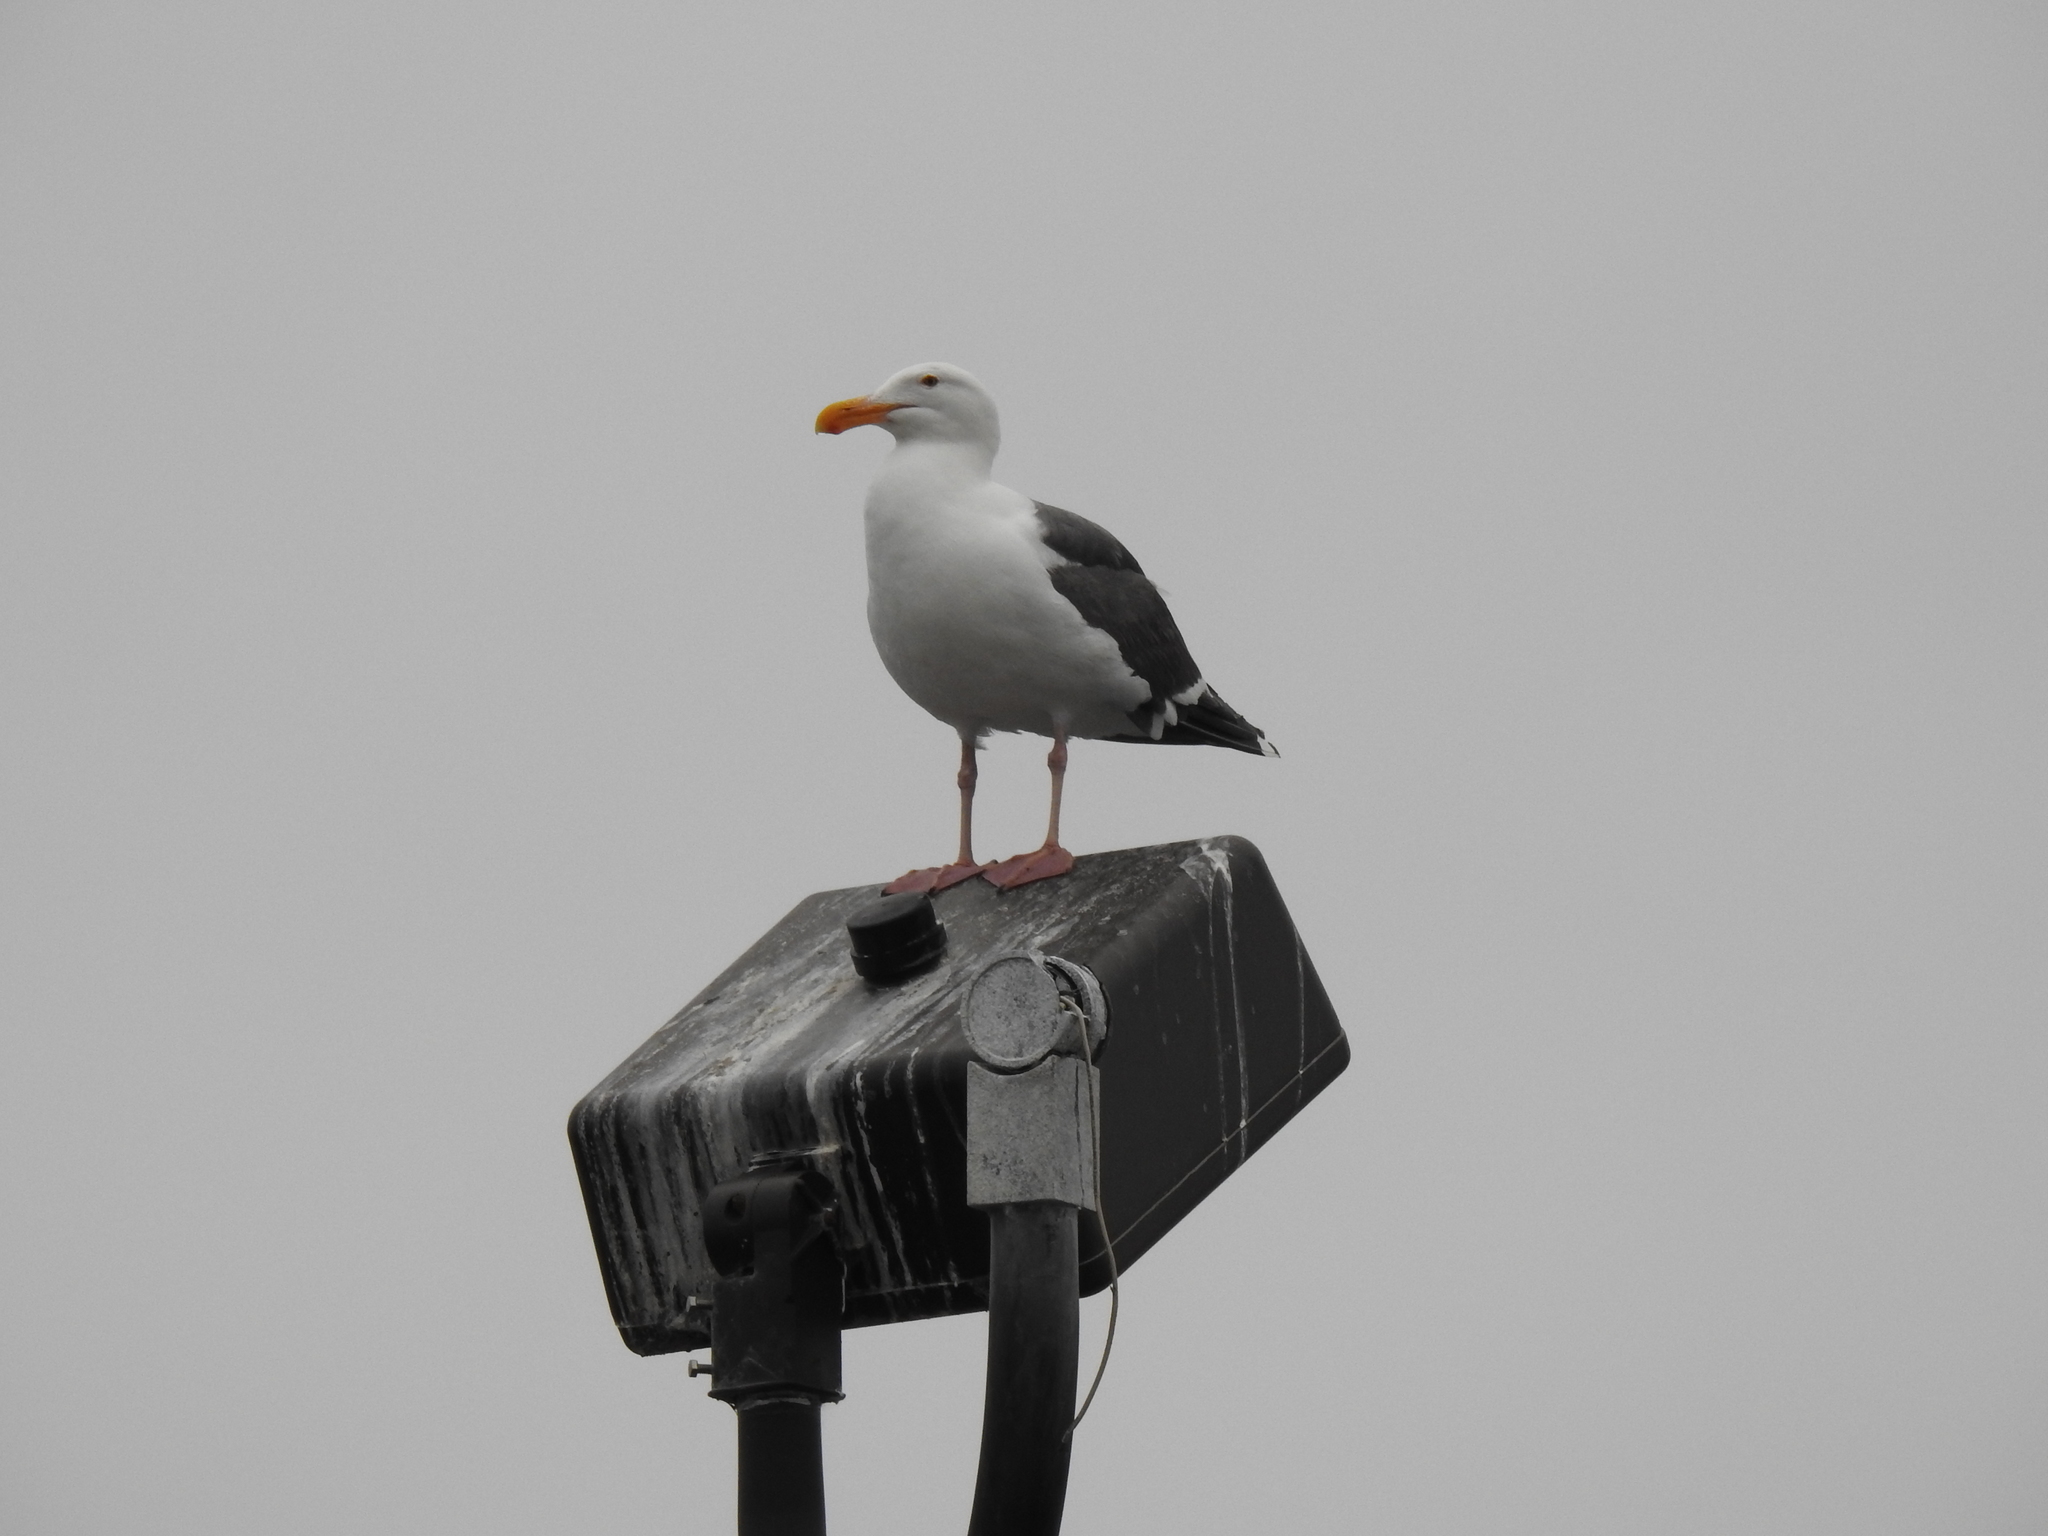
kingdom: Animalia
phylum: Chordata
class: Aves
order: Charadriiformes
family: Laridae
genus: Larus
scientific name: Larus occidentalis
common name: Western gull
